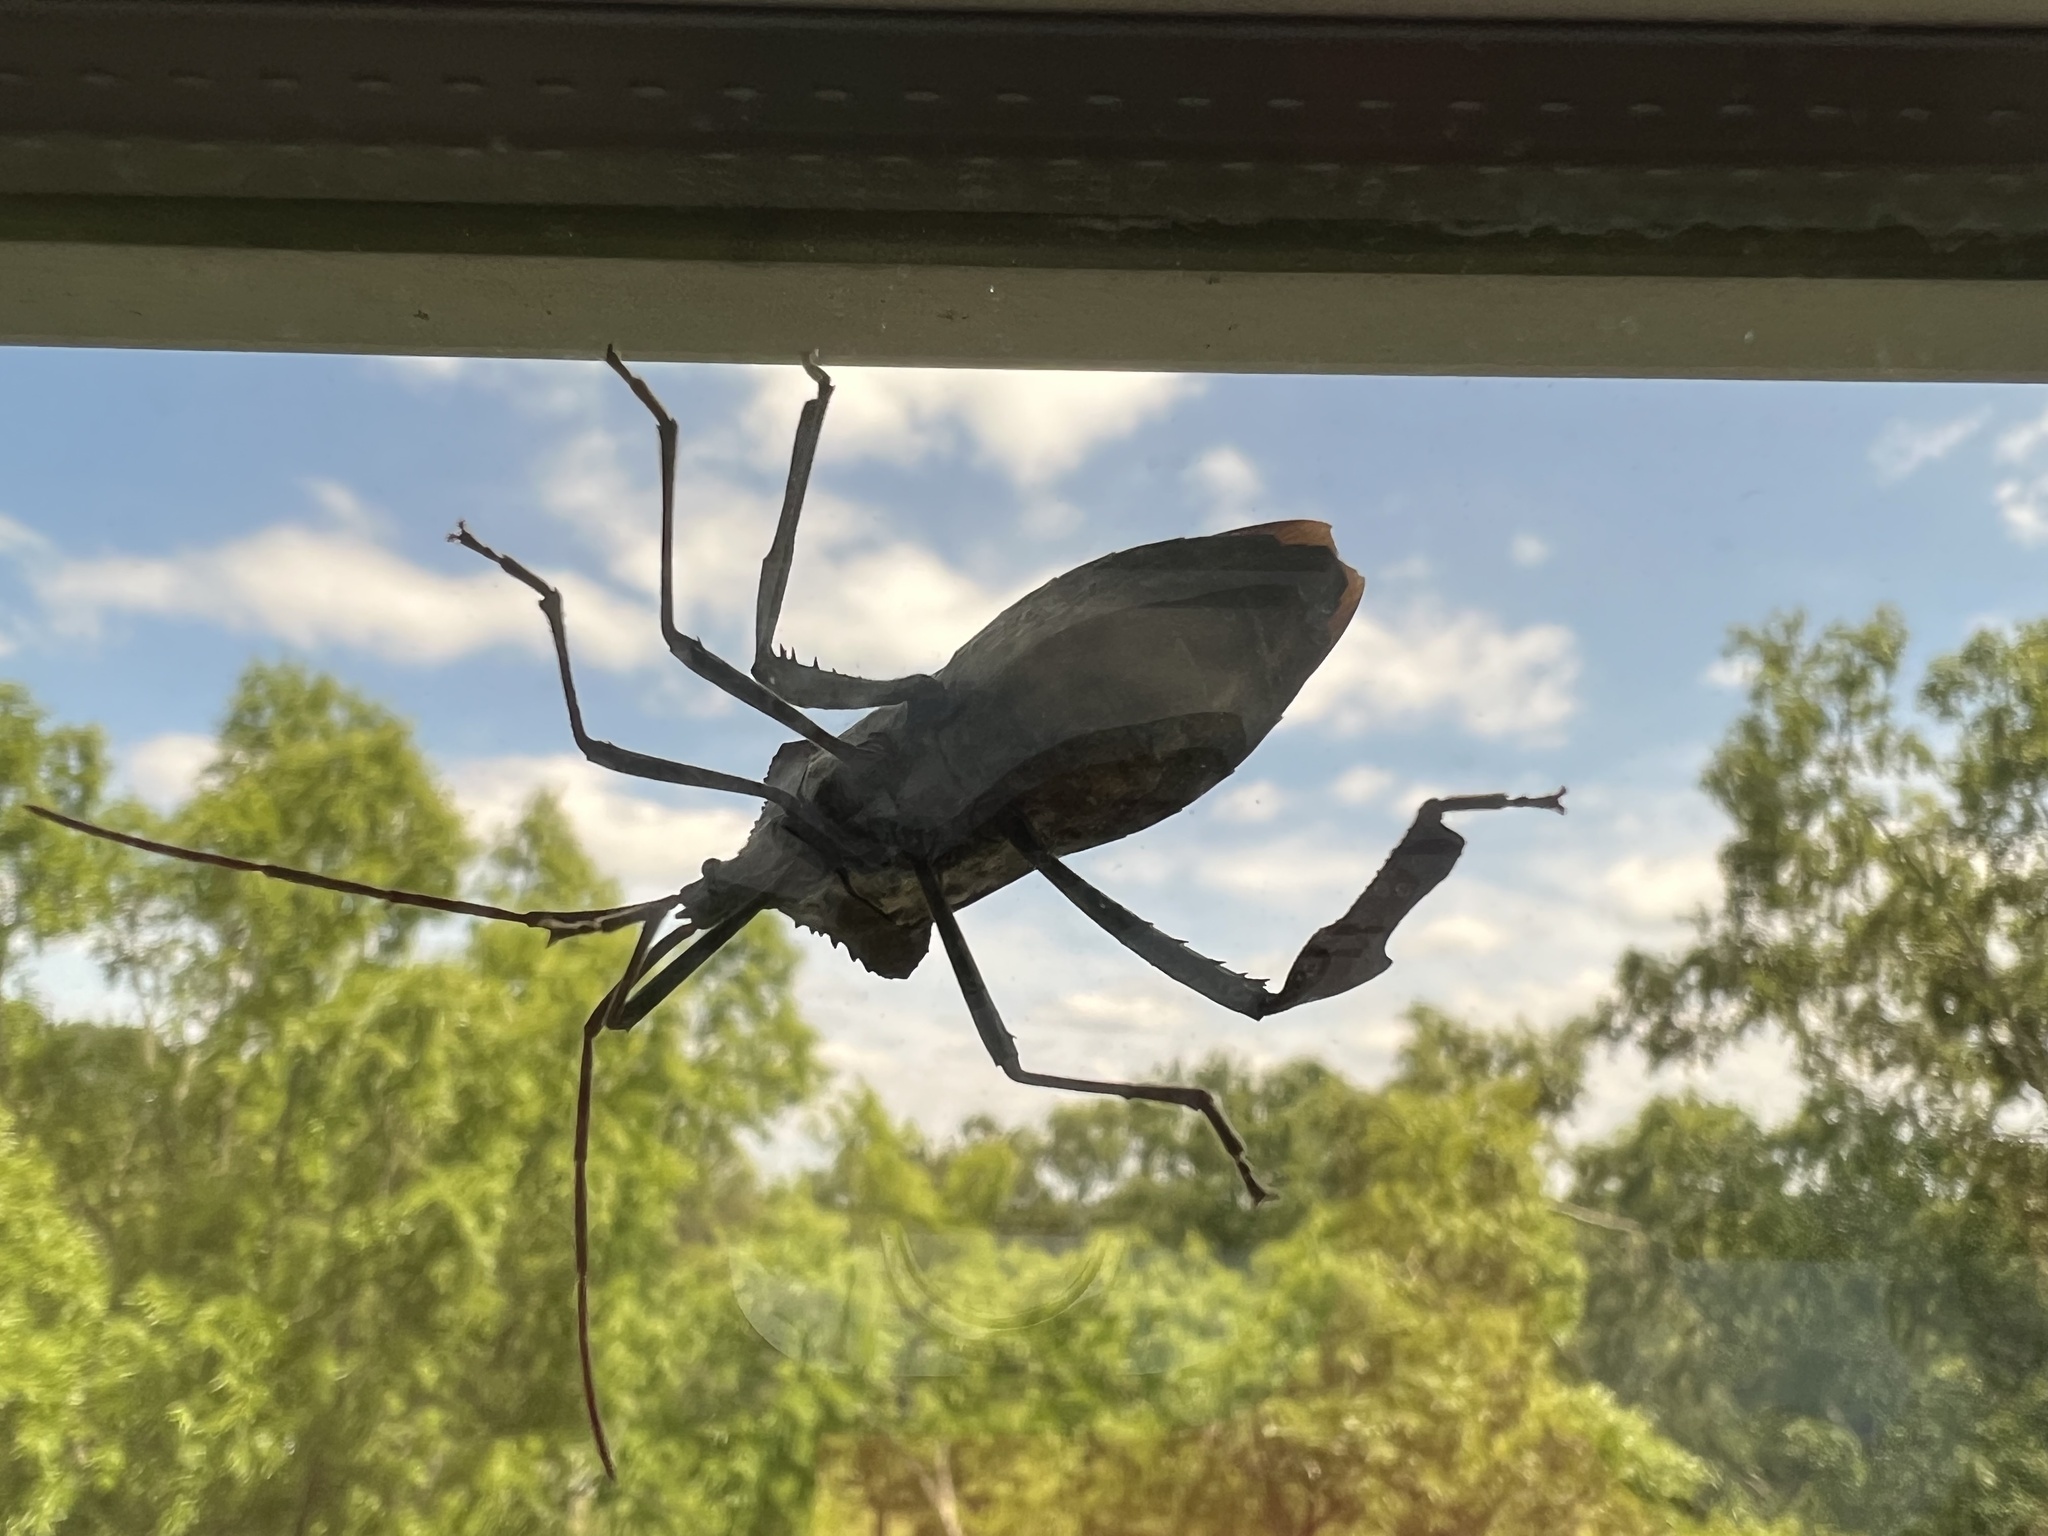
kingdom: Animalia
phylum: Arthropoda
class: Insecta
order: Hemiptera
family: Coreidae
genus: Acanthocephala
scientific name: Acanthocephala declivis
